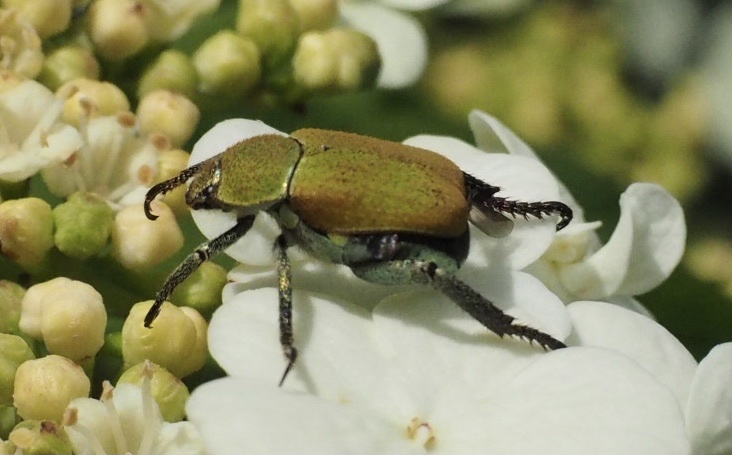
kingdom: Animalia
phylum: Arthropoda
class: Insecta
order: Coleoptera
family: Scarabaeidae
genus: Hoplia
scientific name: Hoplia argentea
